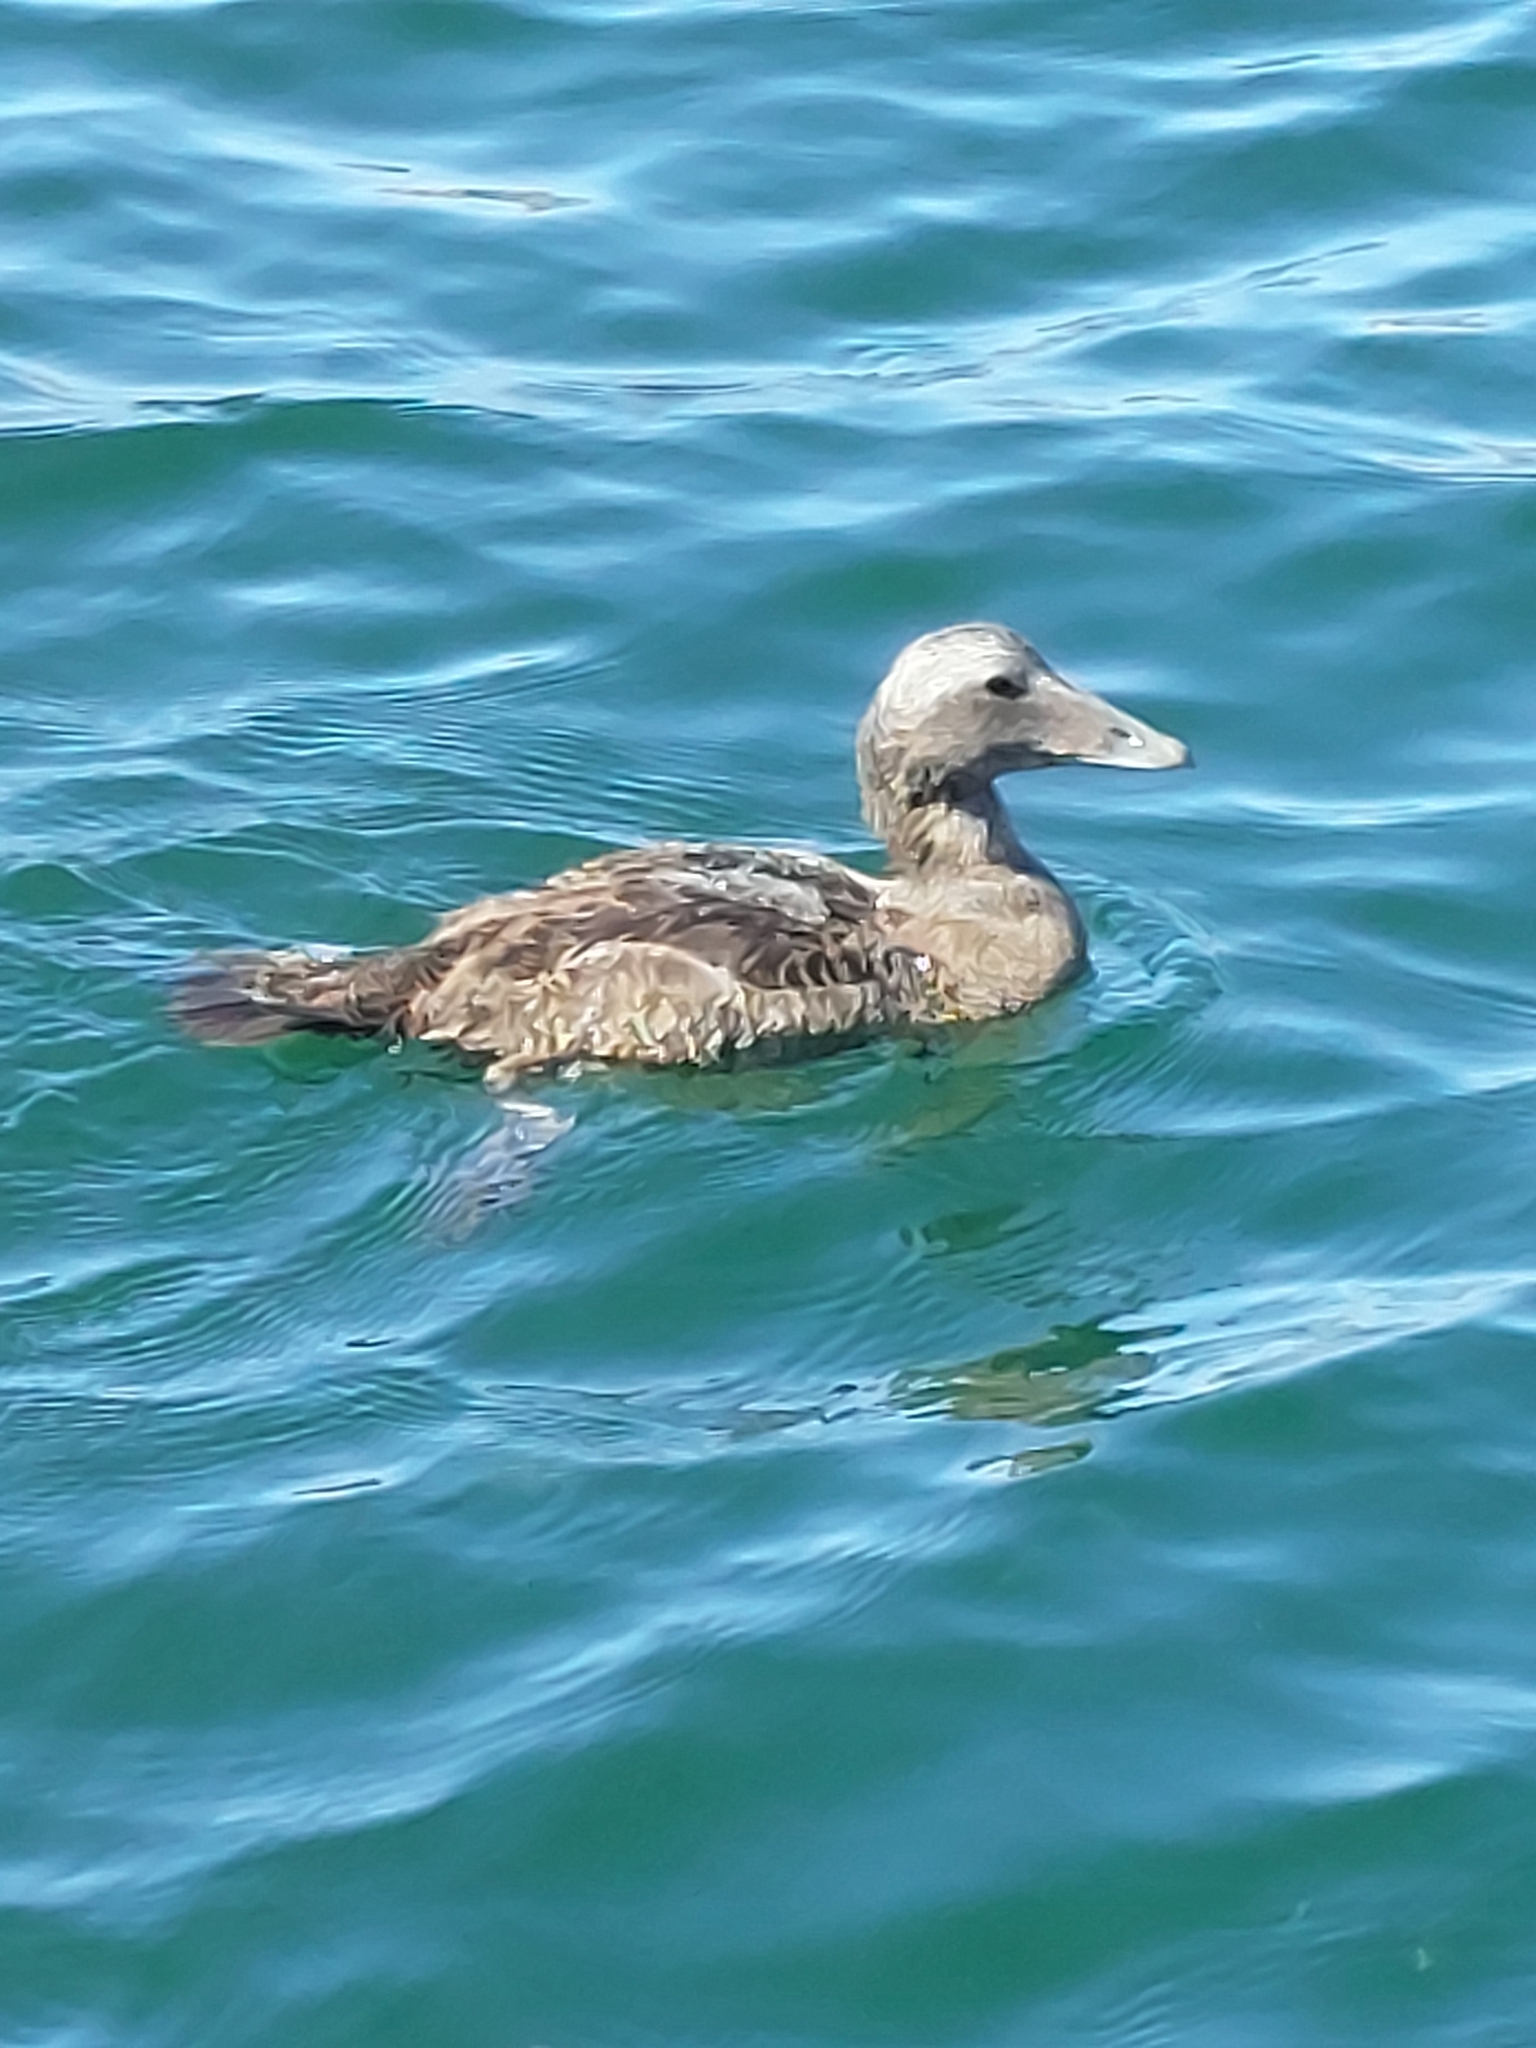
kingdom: Animalia
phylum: Chordata
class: Aves
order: Anseriformes
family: Anatidae
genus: Somateria
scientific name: Somateria mollissima
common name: Common eider
